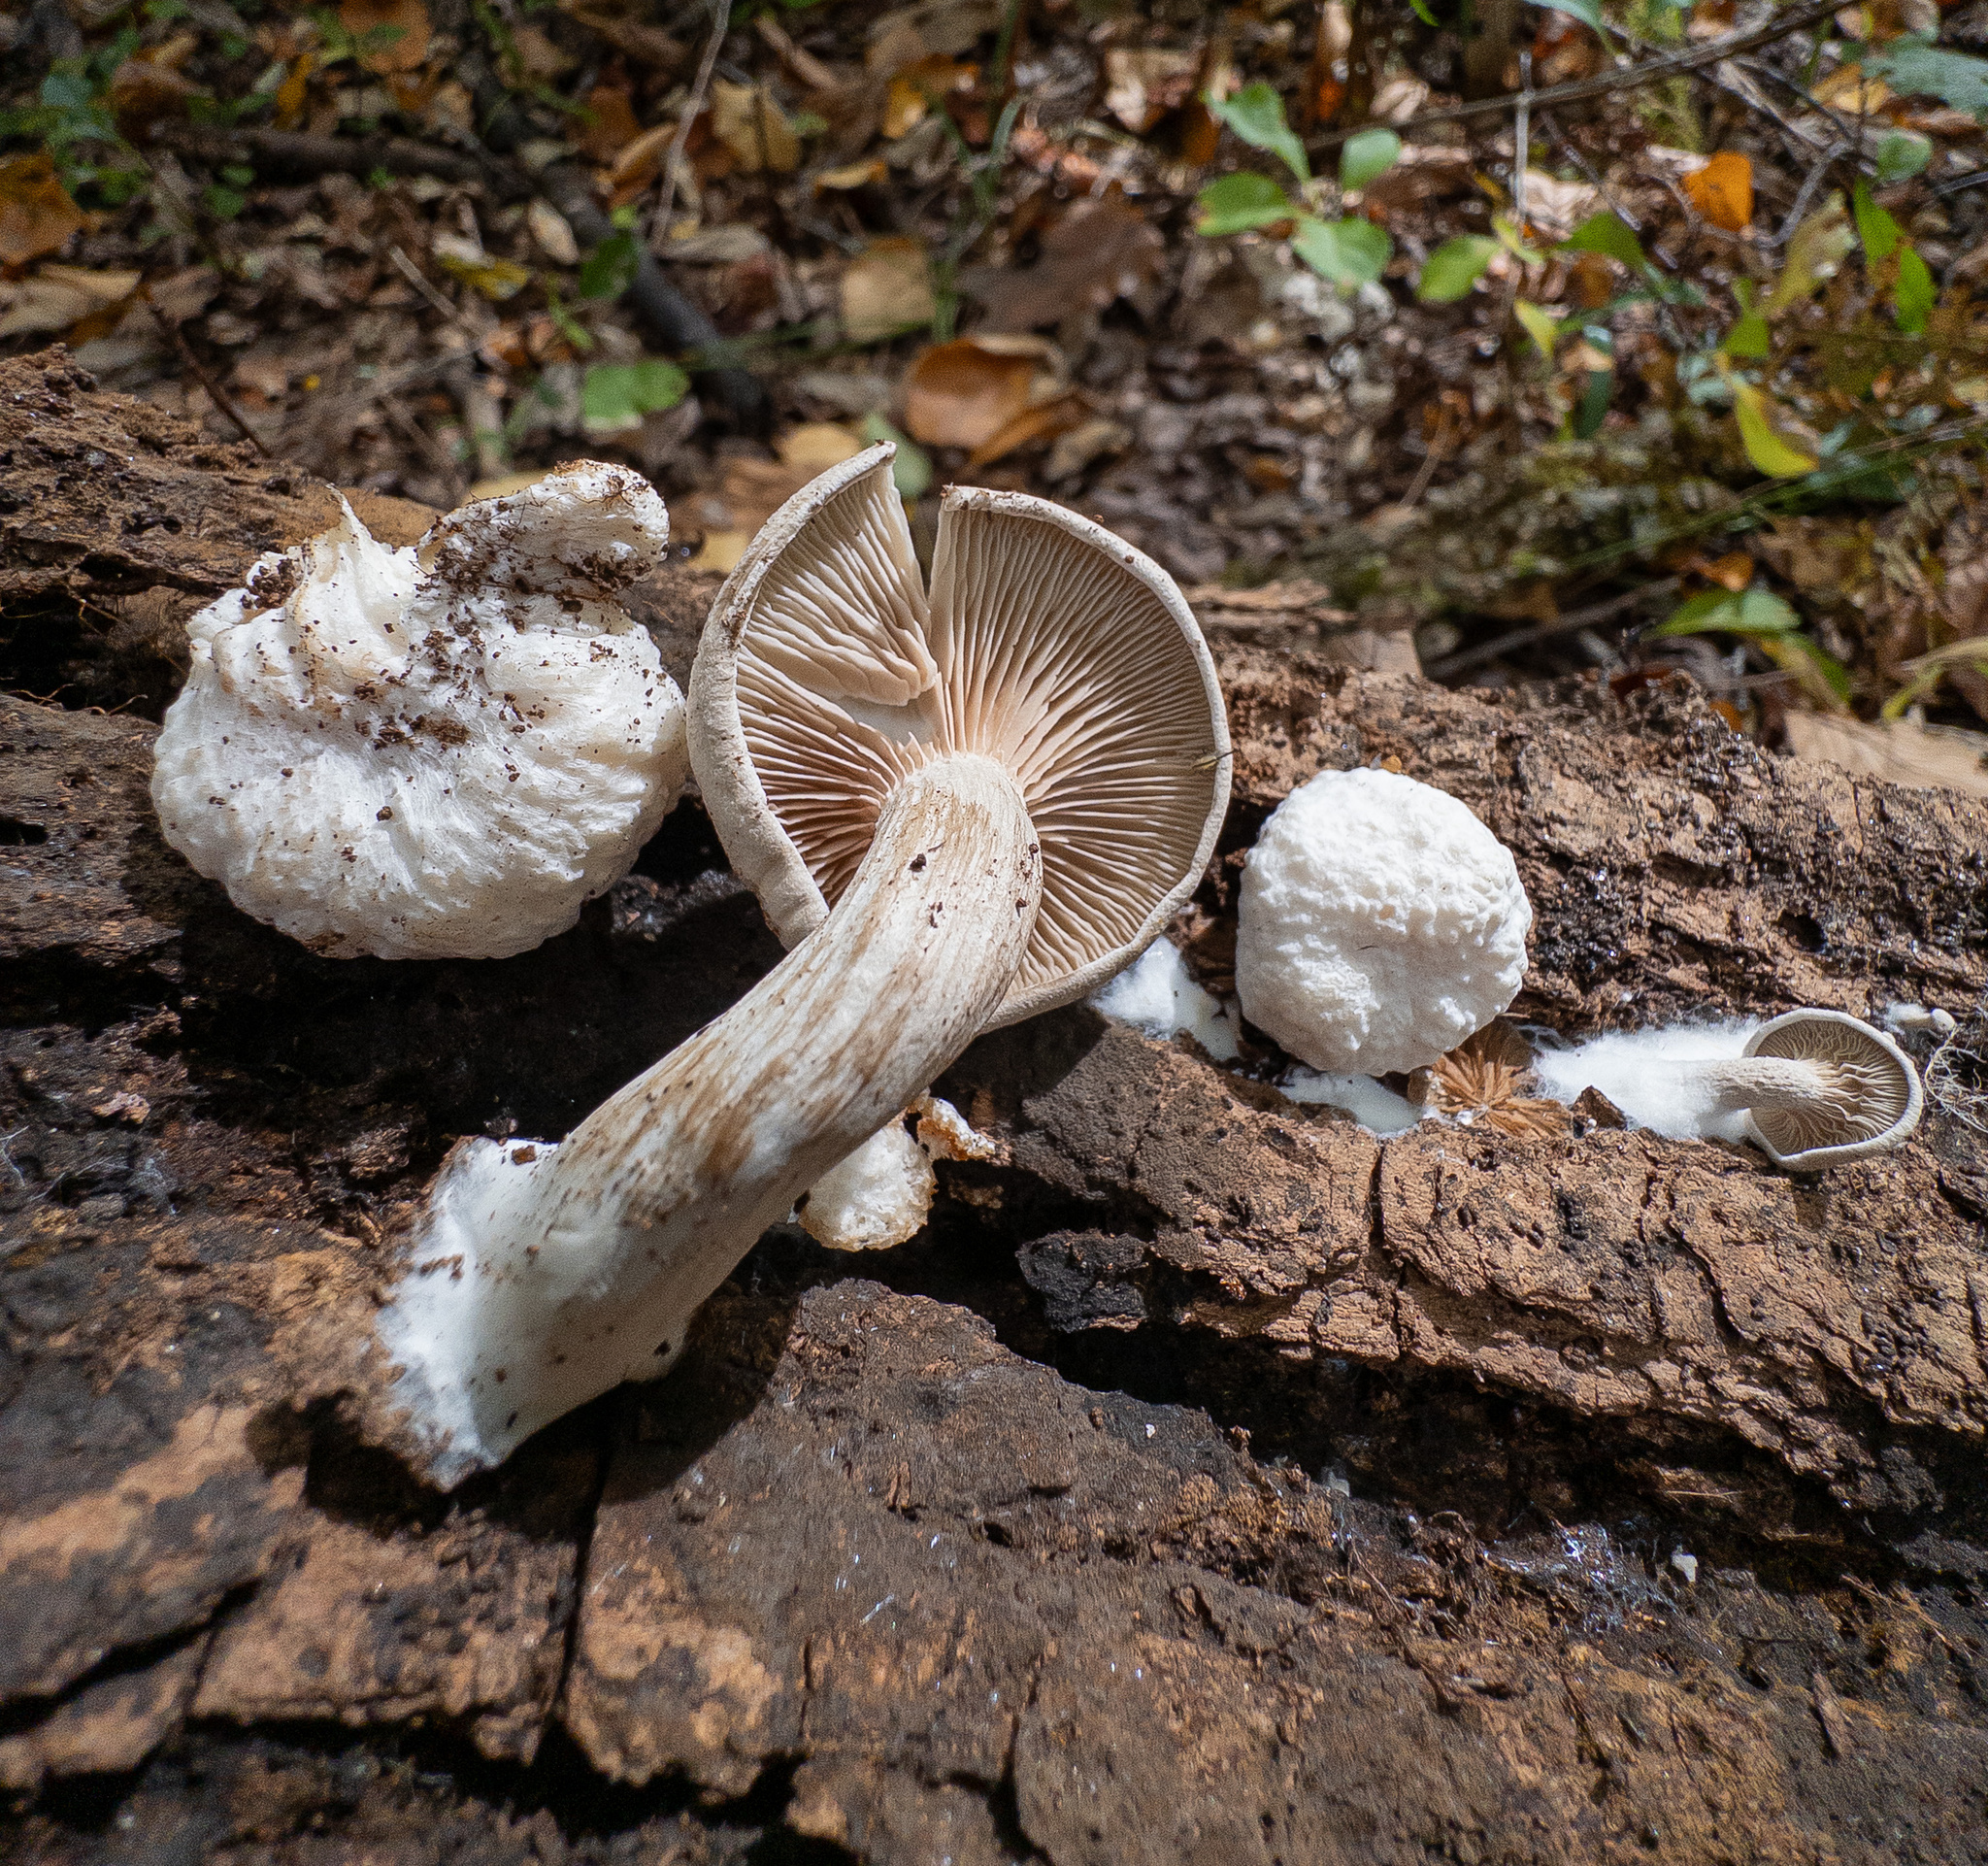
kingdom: Fungi
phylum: Basidiomycota
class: Agaricomycetes
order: Agaricales
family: Entolomataceae
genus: Entoloma
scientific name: Entoloma abortivum
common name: Aborted entoloma
